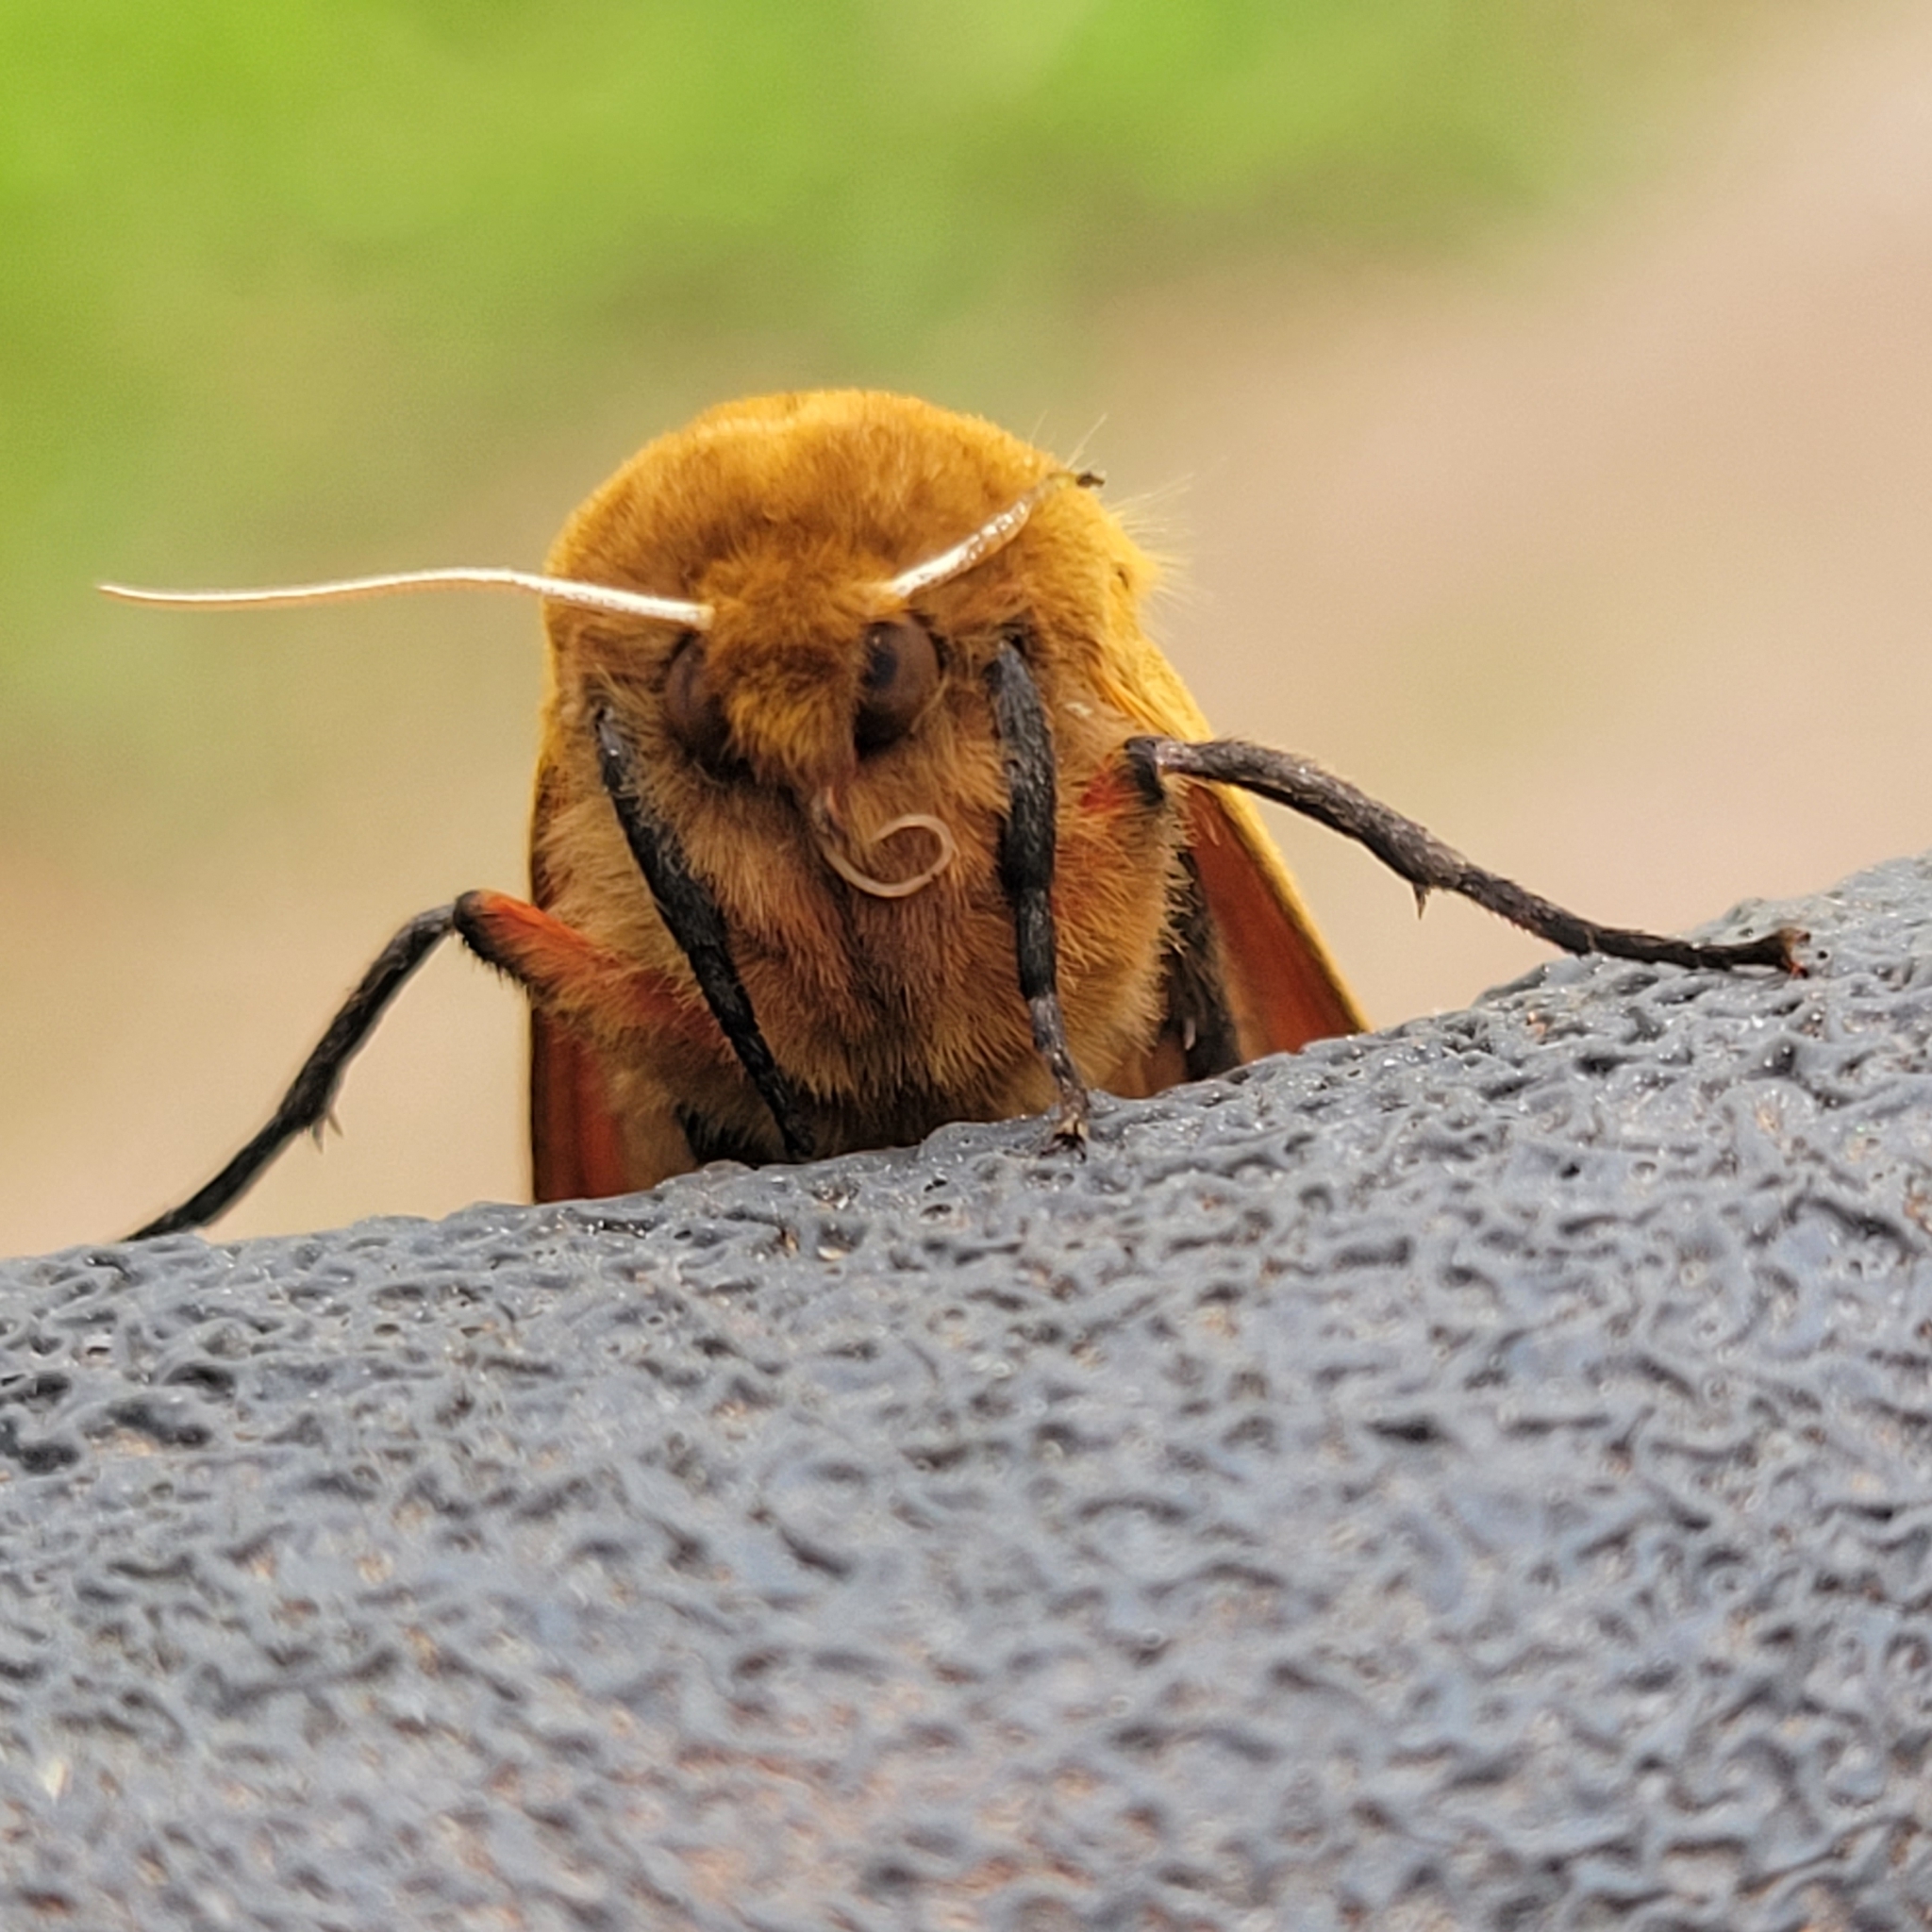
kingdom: Animalia
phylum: Arthropoda
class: Insecta
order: Lepidoptera
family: Erebidae
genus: Pyrrharctia
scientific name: Pyrrharctia isabella
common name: Isabella tiger moth
